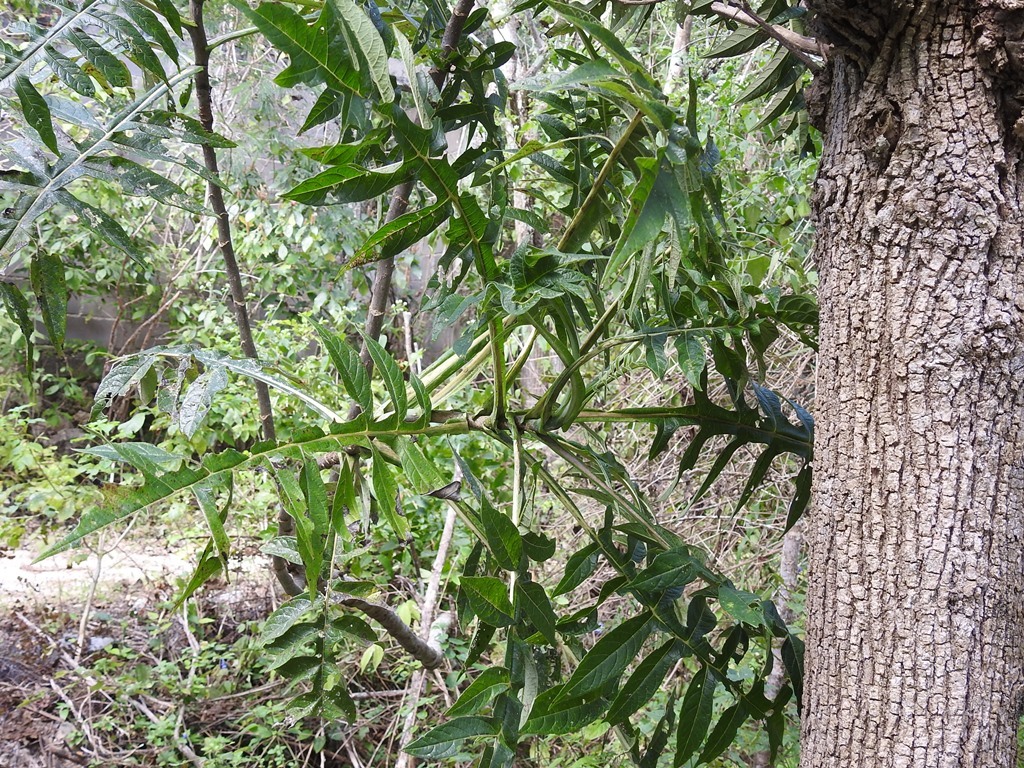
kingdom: Plantae
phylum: Tracheophyta
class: Magnoliopsida
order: Asterales
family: Asteraceae
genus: Verbesina
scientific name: Verbesina turbacensis
